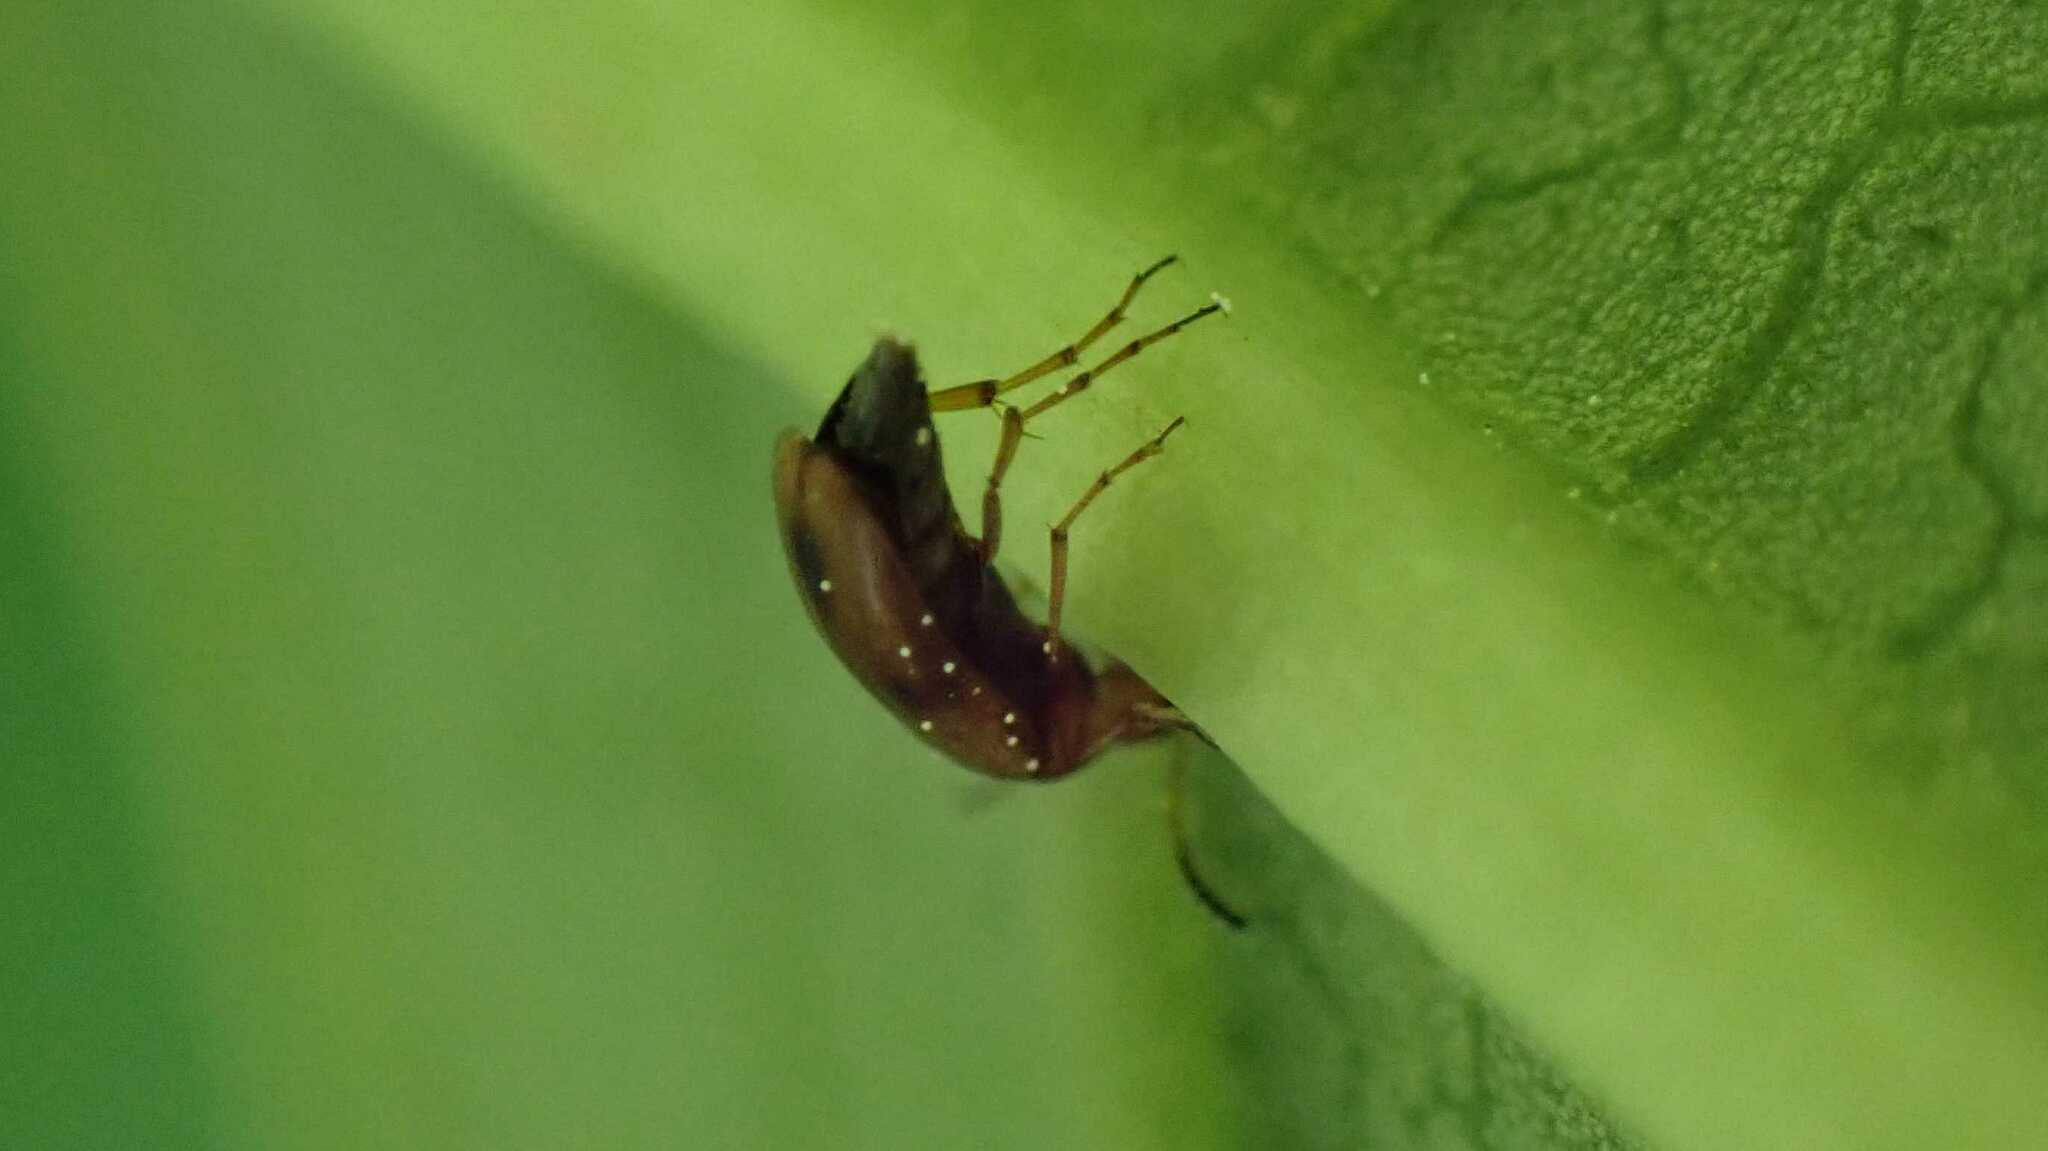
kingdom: Animalia
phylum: Arthropoda
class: Insecta
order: Coleoptera
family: Scraptiidae
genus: Anaspis
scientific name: Anaspis maculata
